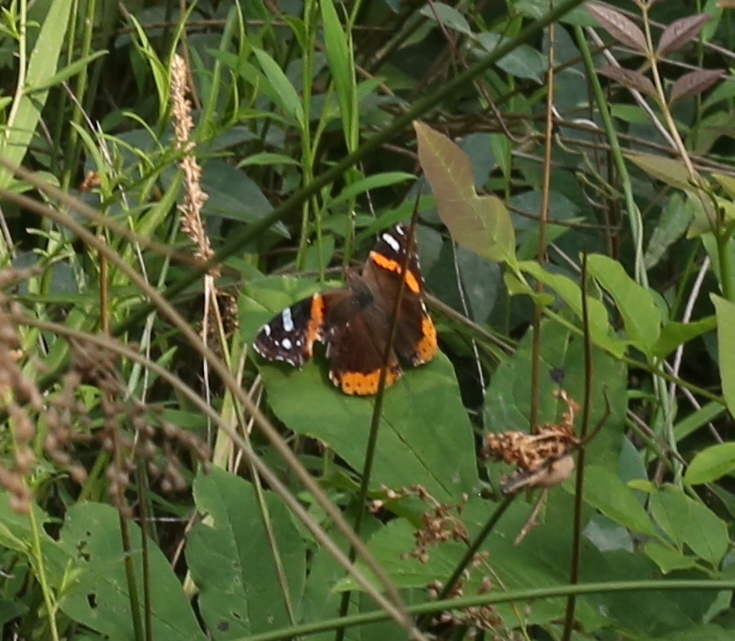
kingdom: Animalia
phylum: Arthropoda
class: Insecta
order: Lepidoptera
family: Nymphalidae
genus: Vanessa
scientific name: Vanessa atalanta
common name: Red admiral
